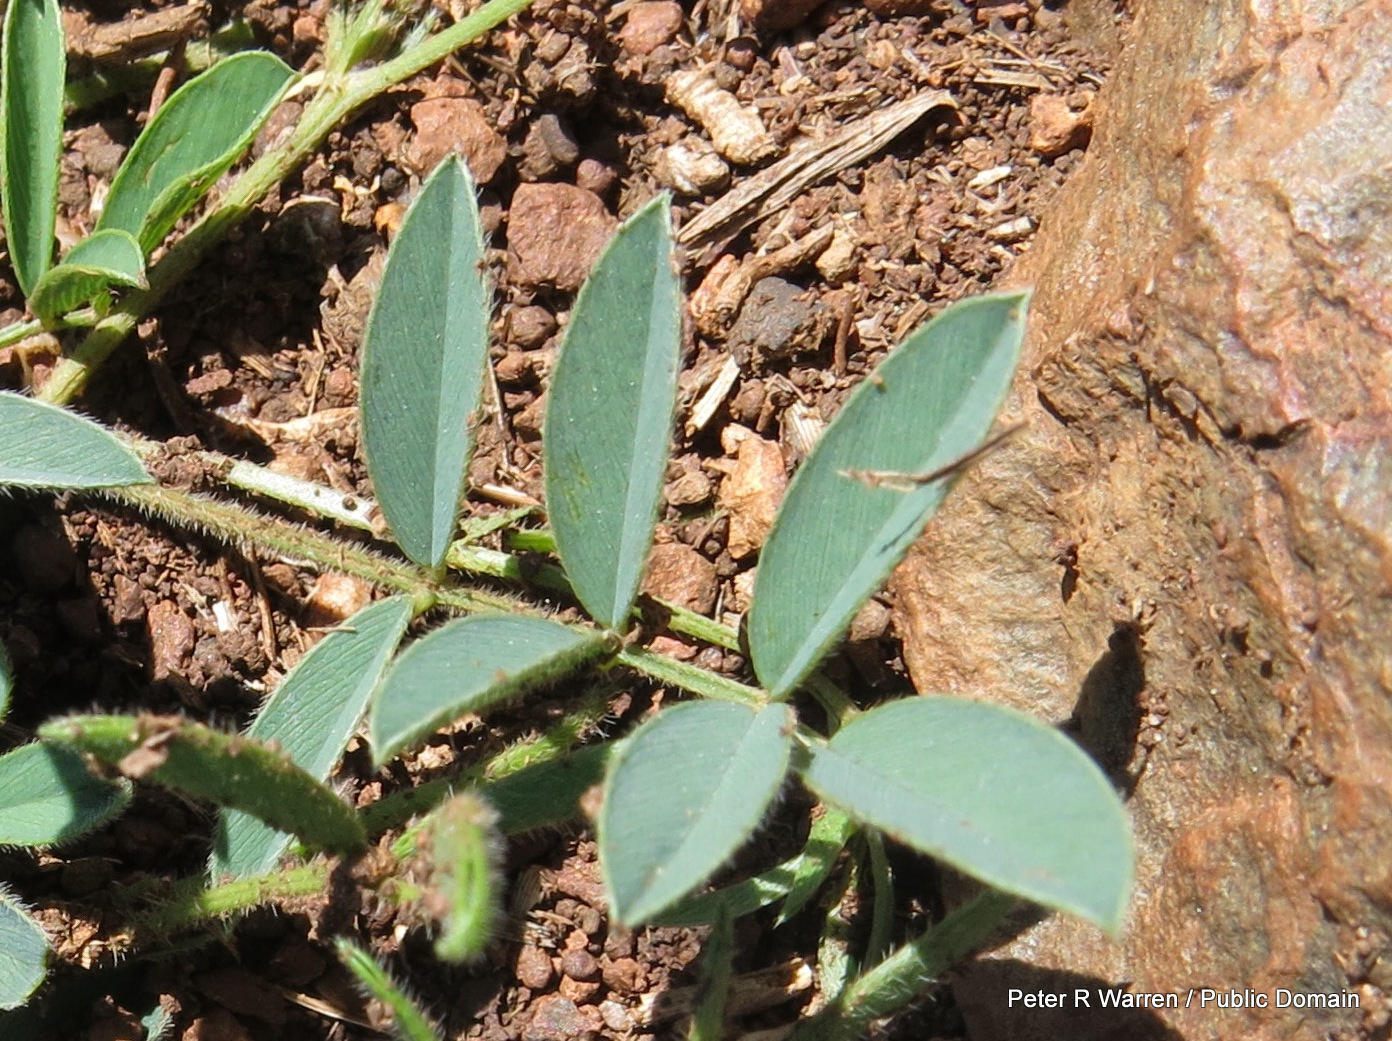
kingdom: Plantae
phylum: Tracheophyta
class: Magnoliopsida
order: Fabales
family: Fabaceae
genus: Tephrosia
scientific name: Tephrosia capensis
